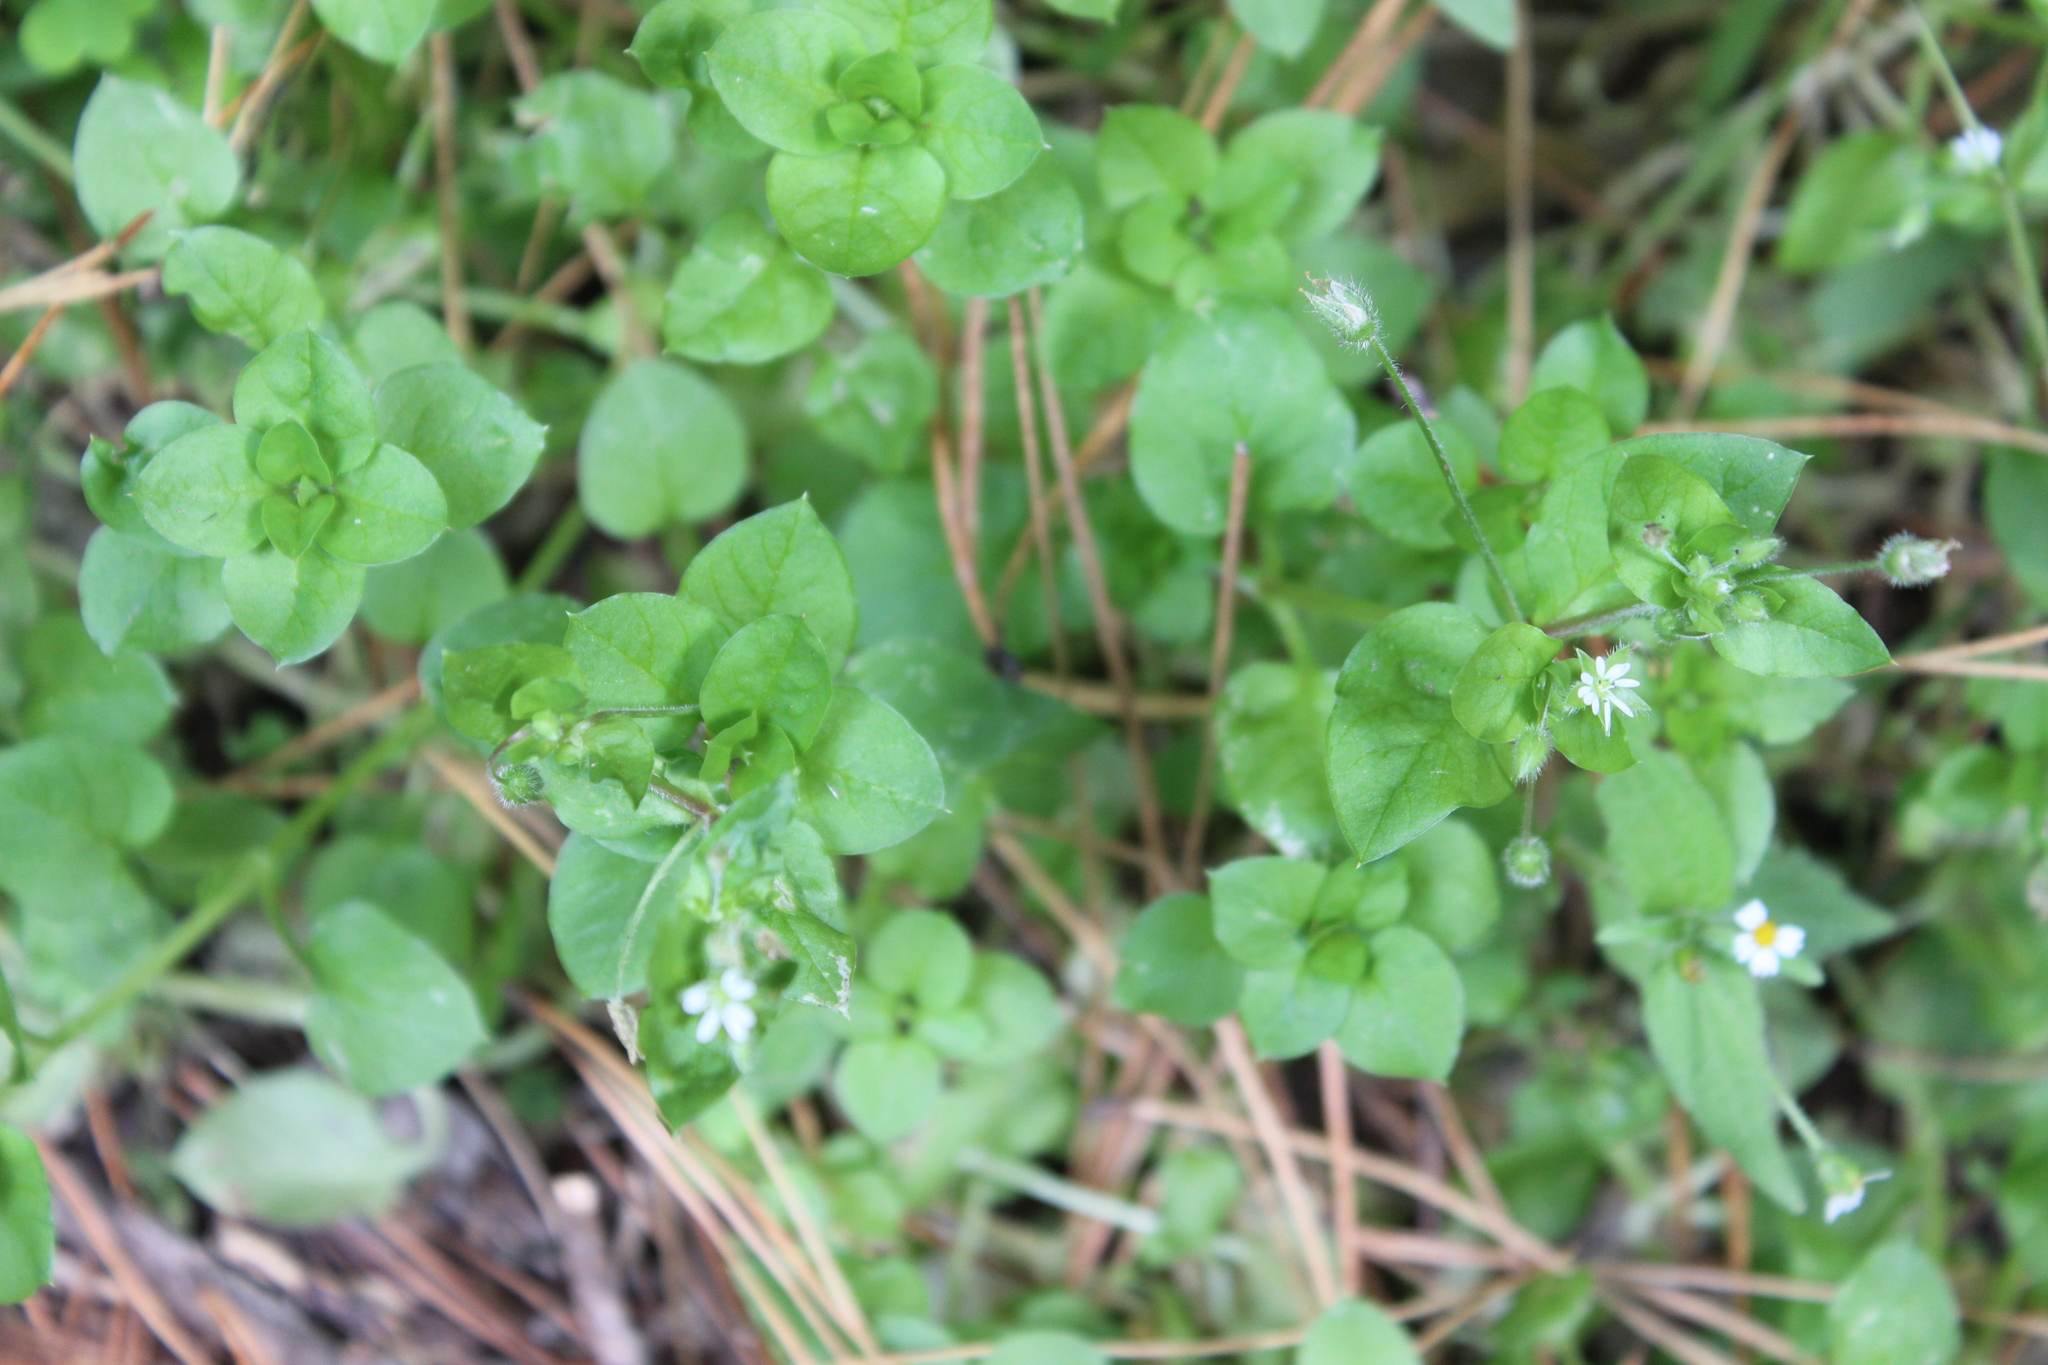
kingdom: Plantae
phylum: Tracheophyta
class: Magnoliopsida
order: Caryophyllales
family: Caryophyllaceae
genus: Stellaria
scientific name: Stellaria media
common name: Common chickweed
